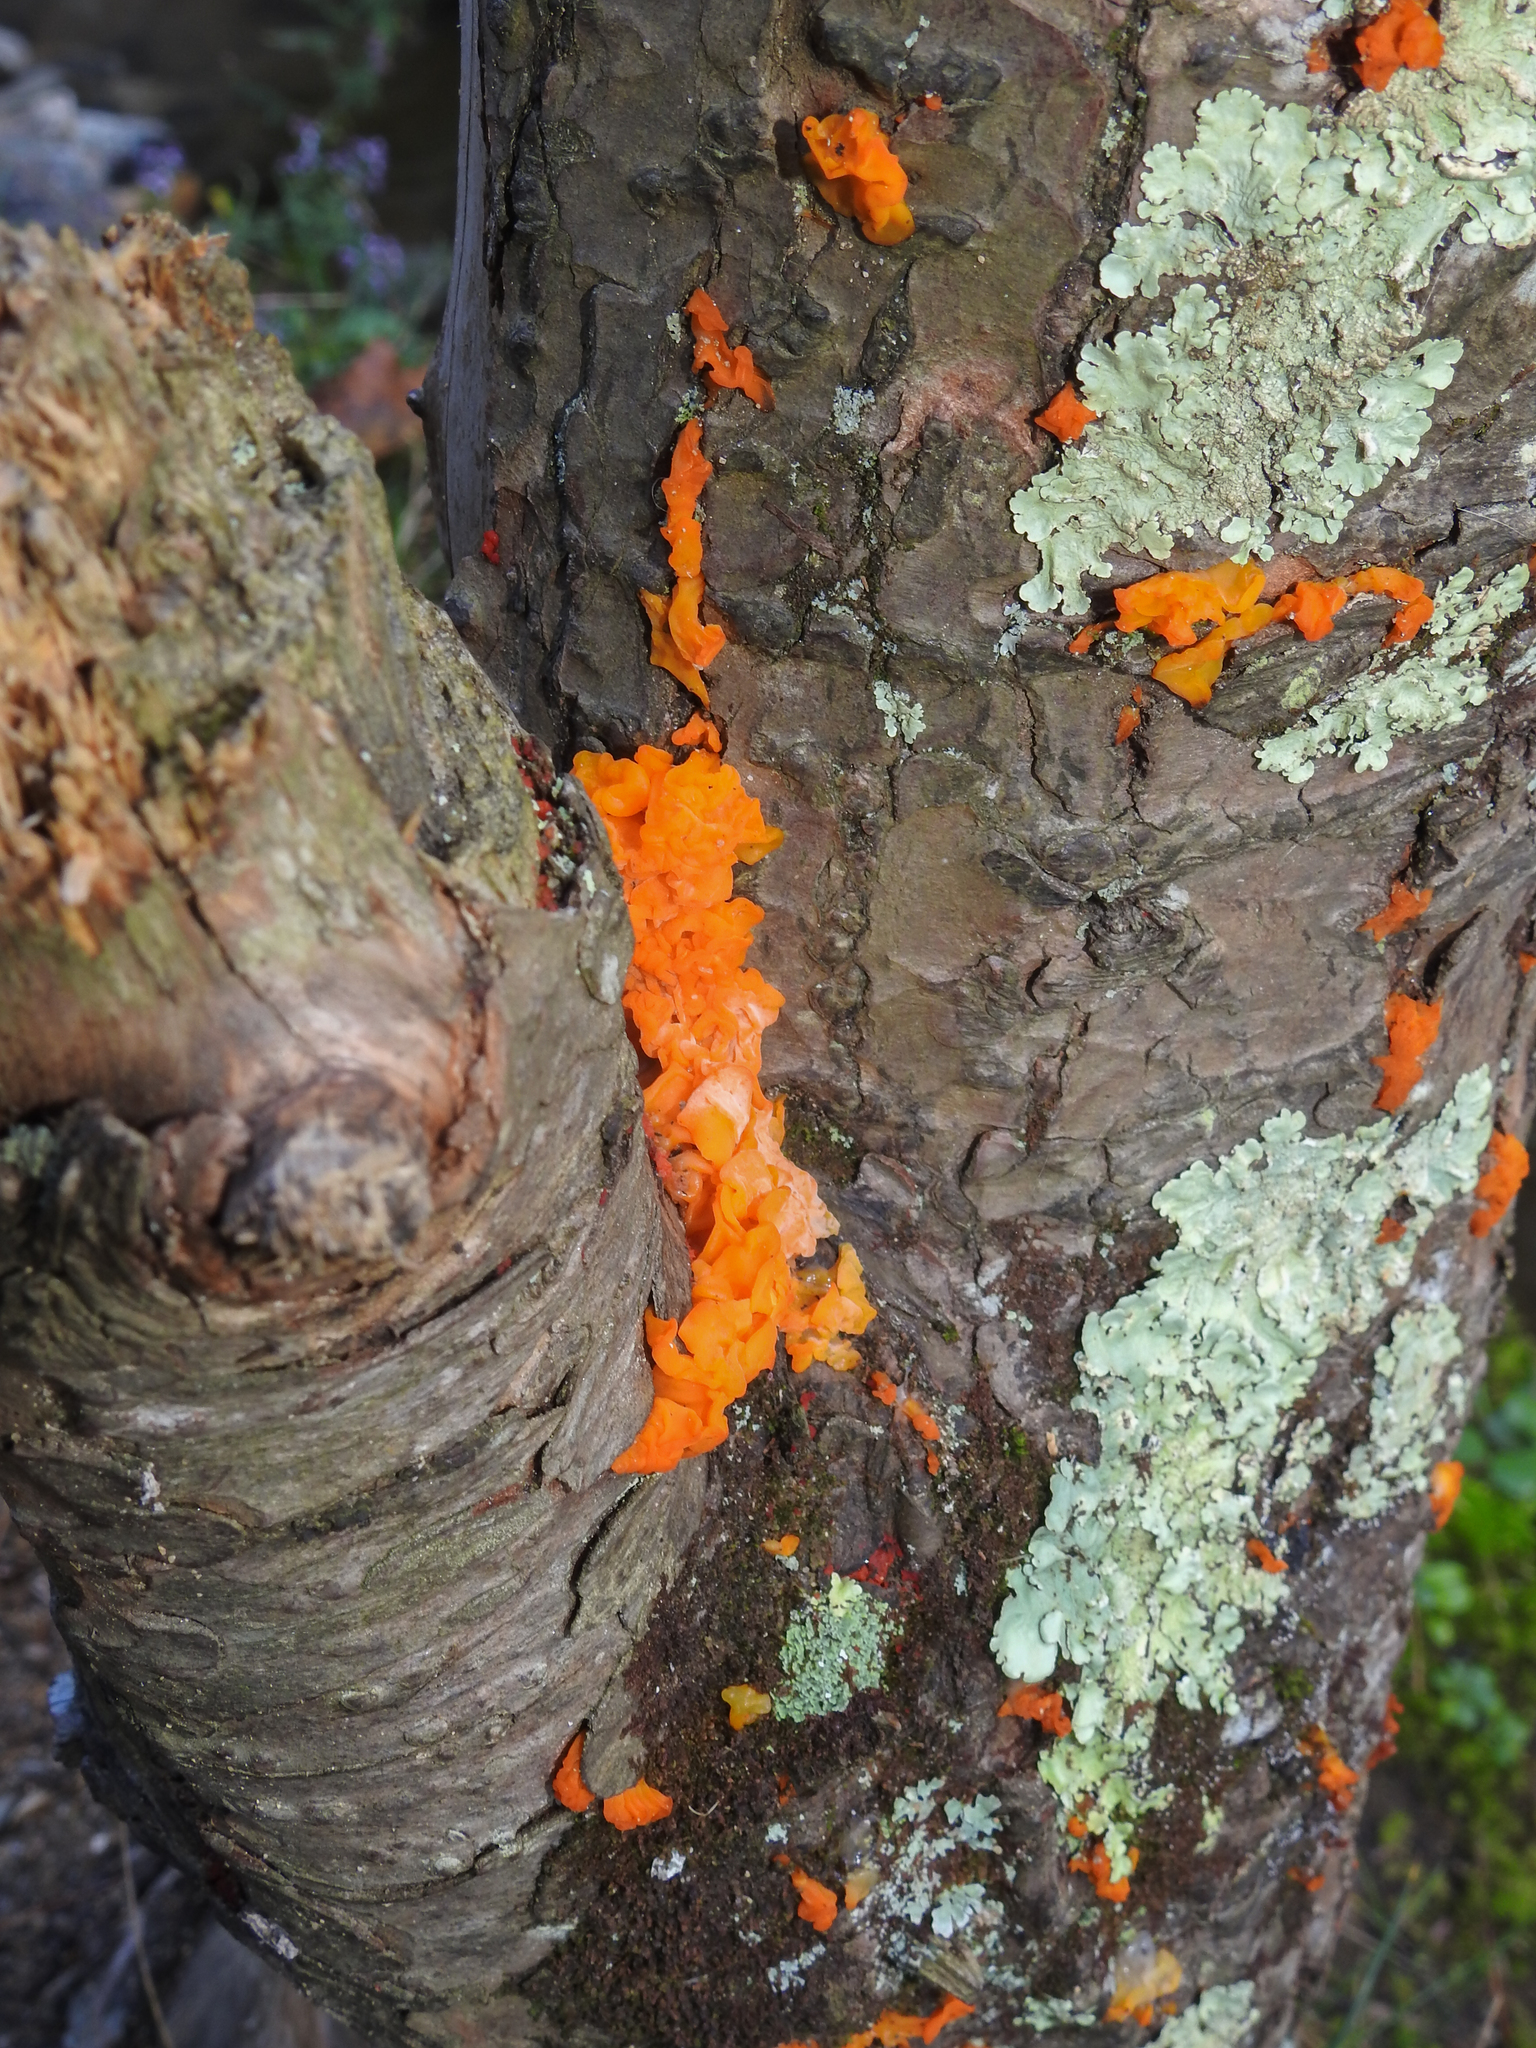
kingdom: Fungi
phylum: Basidiomycota
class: Dacrymycetes
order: Dacrymycetales
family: Dacrymycetaceae
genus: Dacrymyces
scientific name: Dacrymyces chrysospermus
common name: Orange jelly spot
